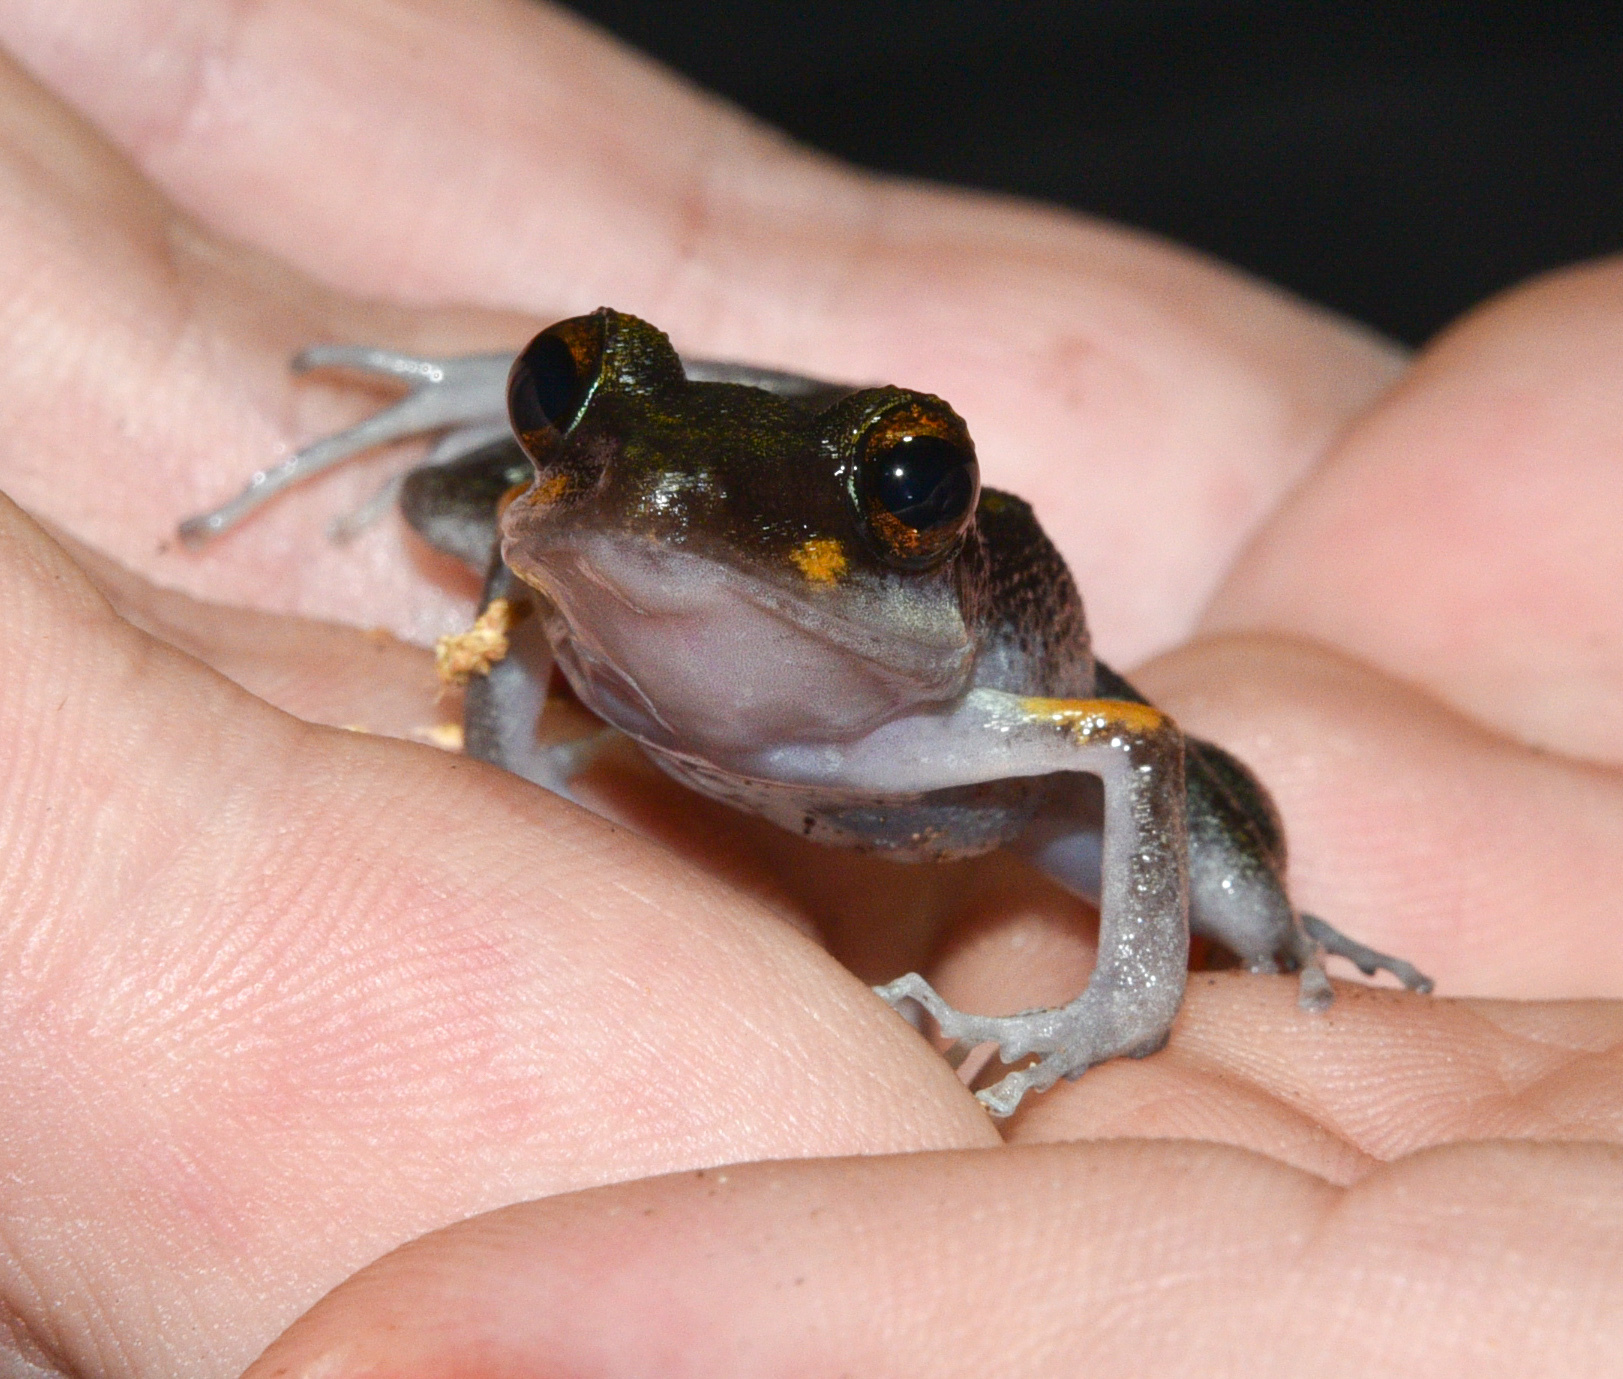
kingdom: Animalia
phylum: Chordata
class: Amphibia
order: Anura
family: Craugastoridae
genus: Pristimantis
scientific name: Pristimantis gaigei
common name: Fort randolph robber frog
